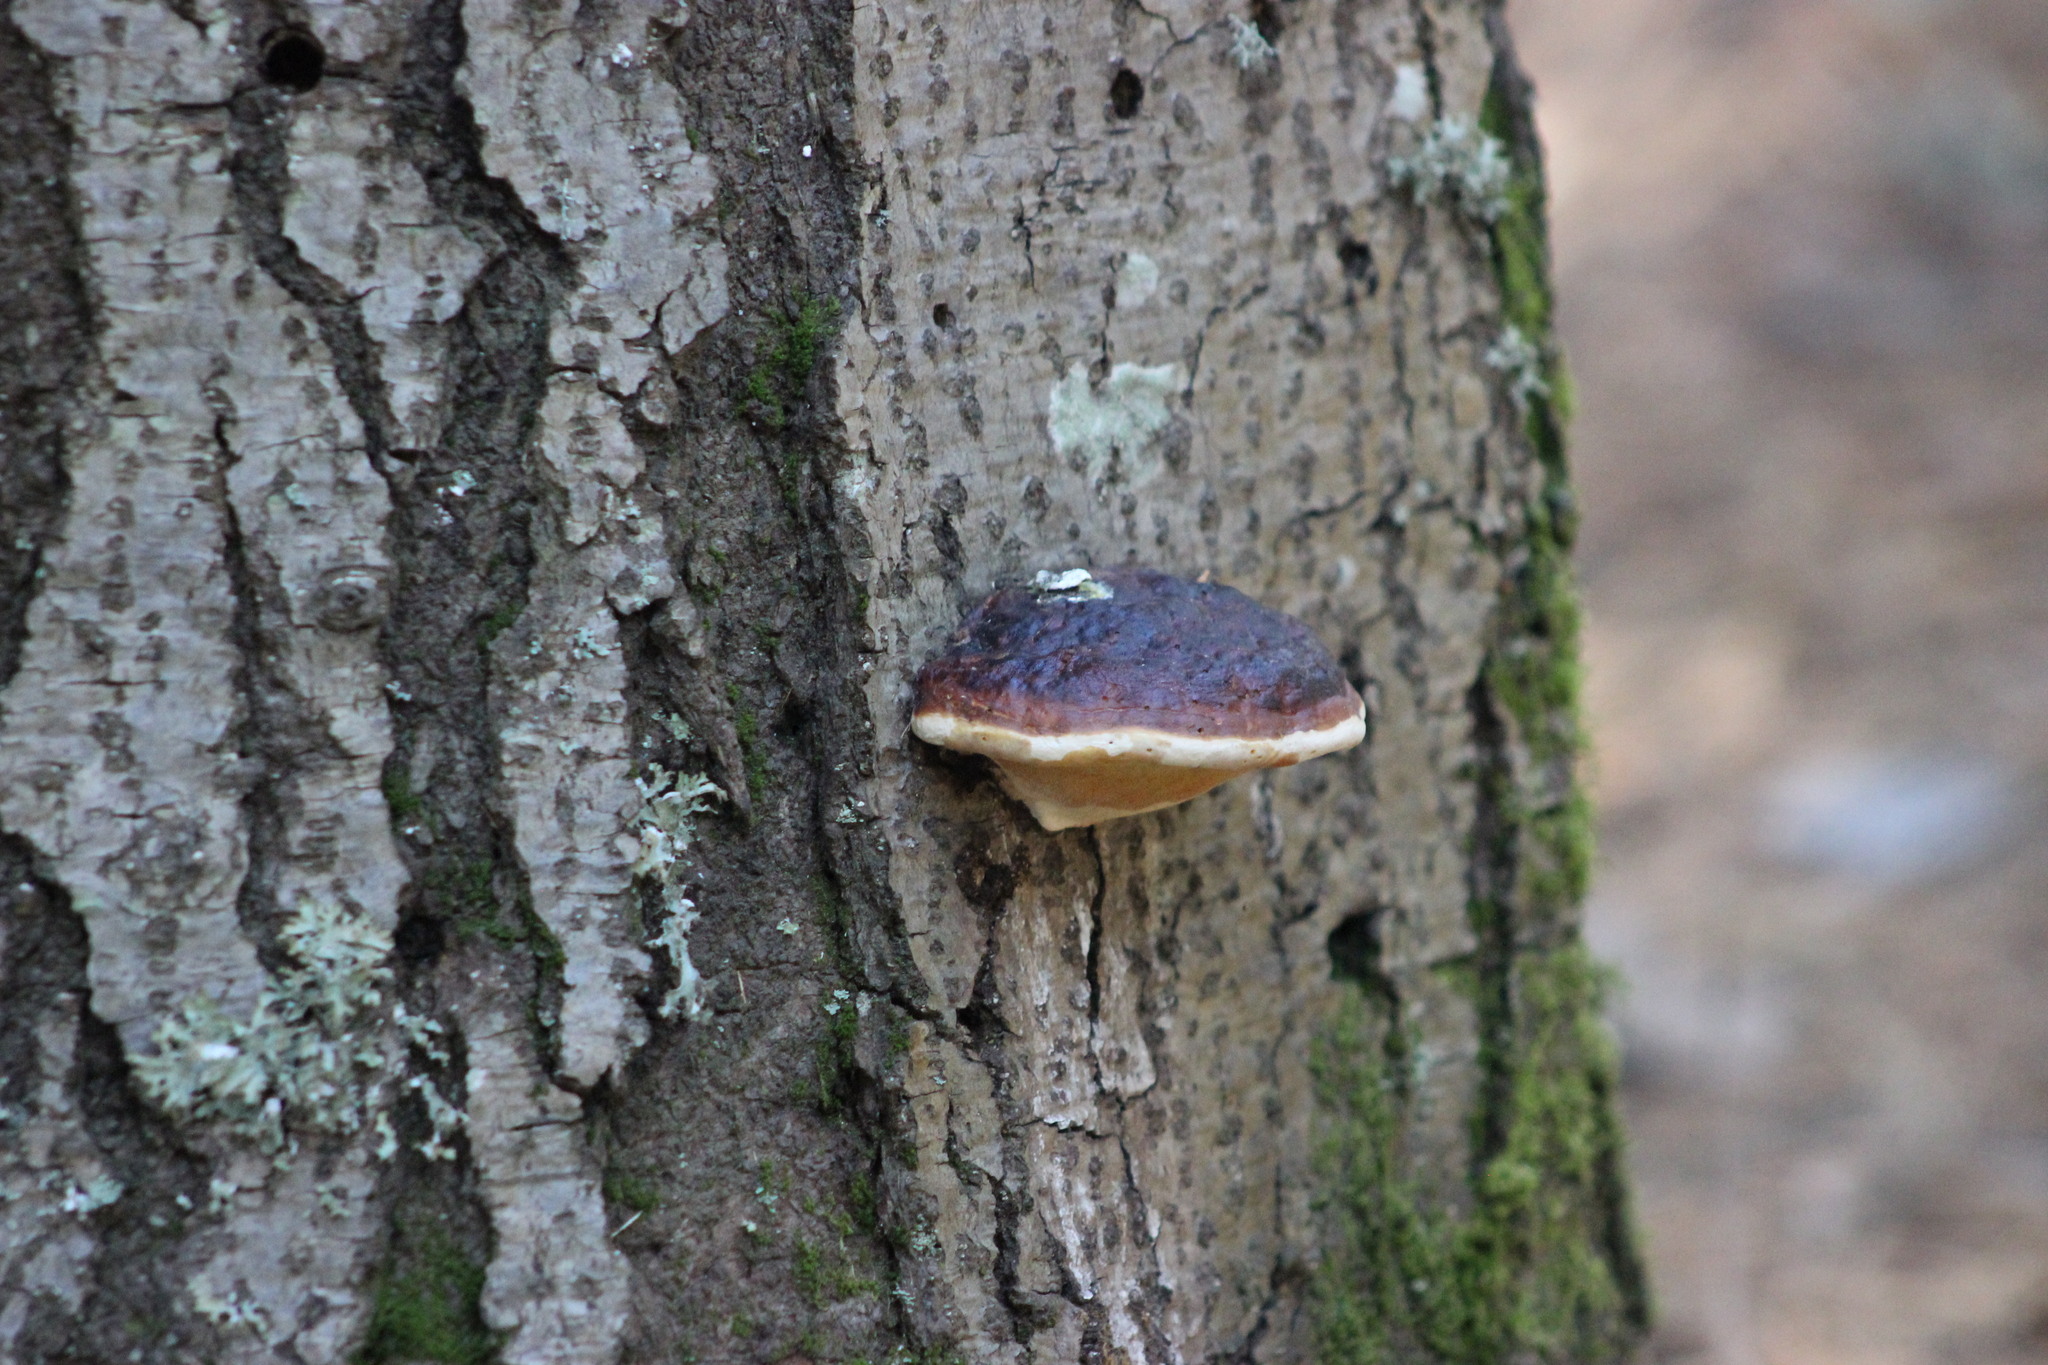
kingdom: Fungi
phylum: Basidiomycota
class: Agaricomycetes
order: Polyporales
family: Fomitopsidaceae
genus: Fomitopsis
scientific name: Fomitopsis pinicola
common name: Red-belted bracket
